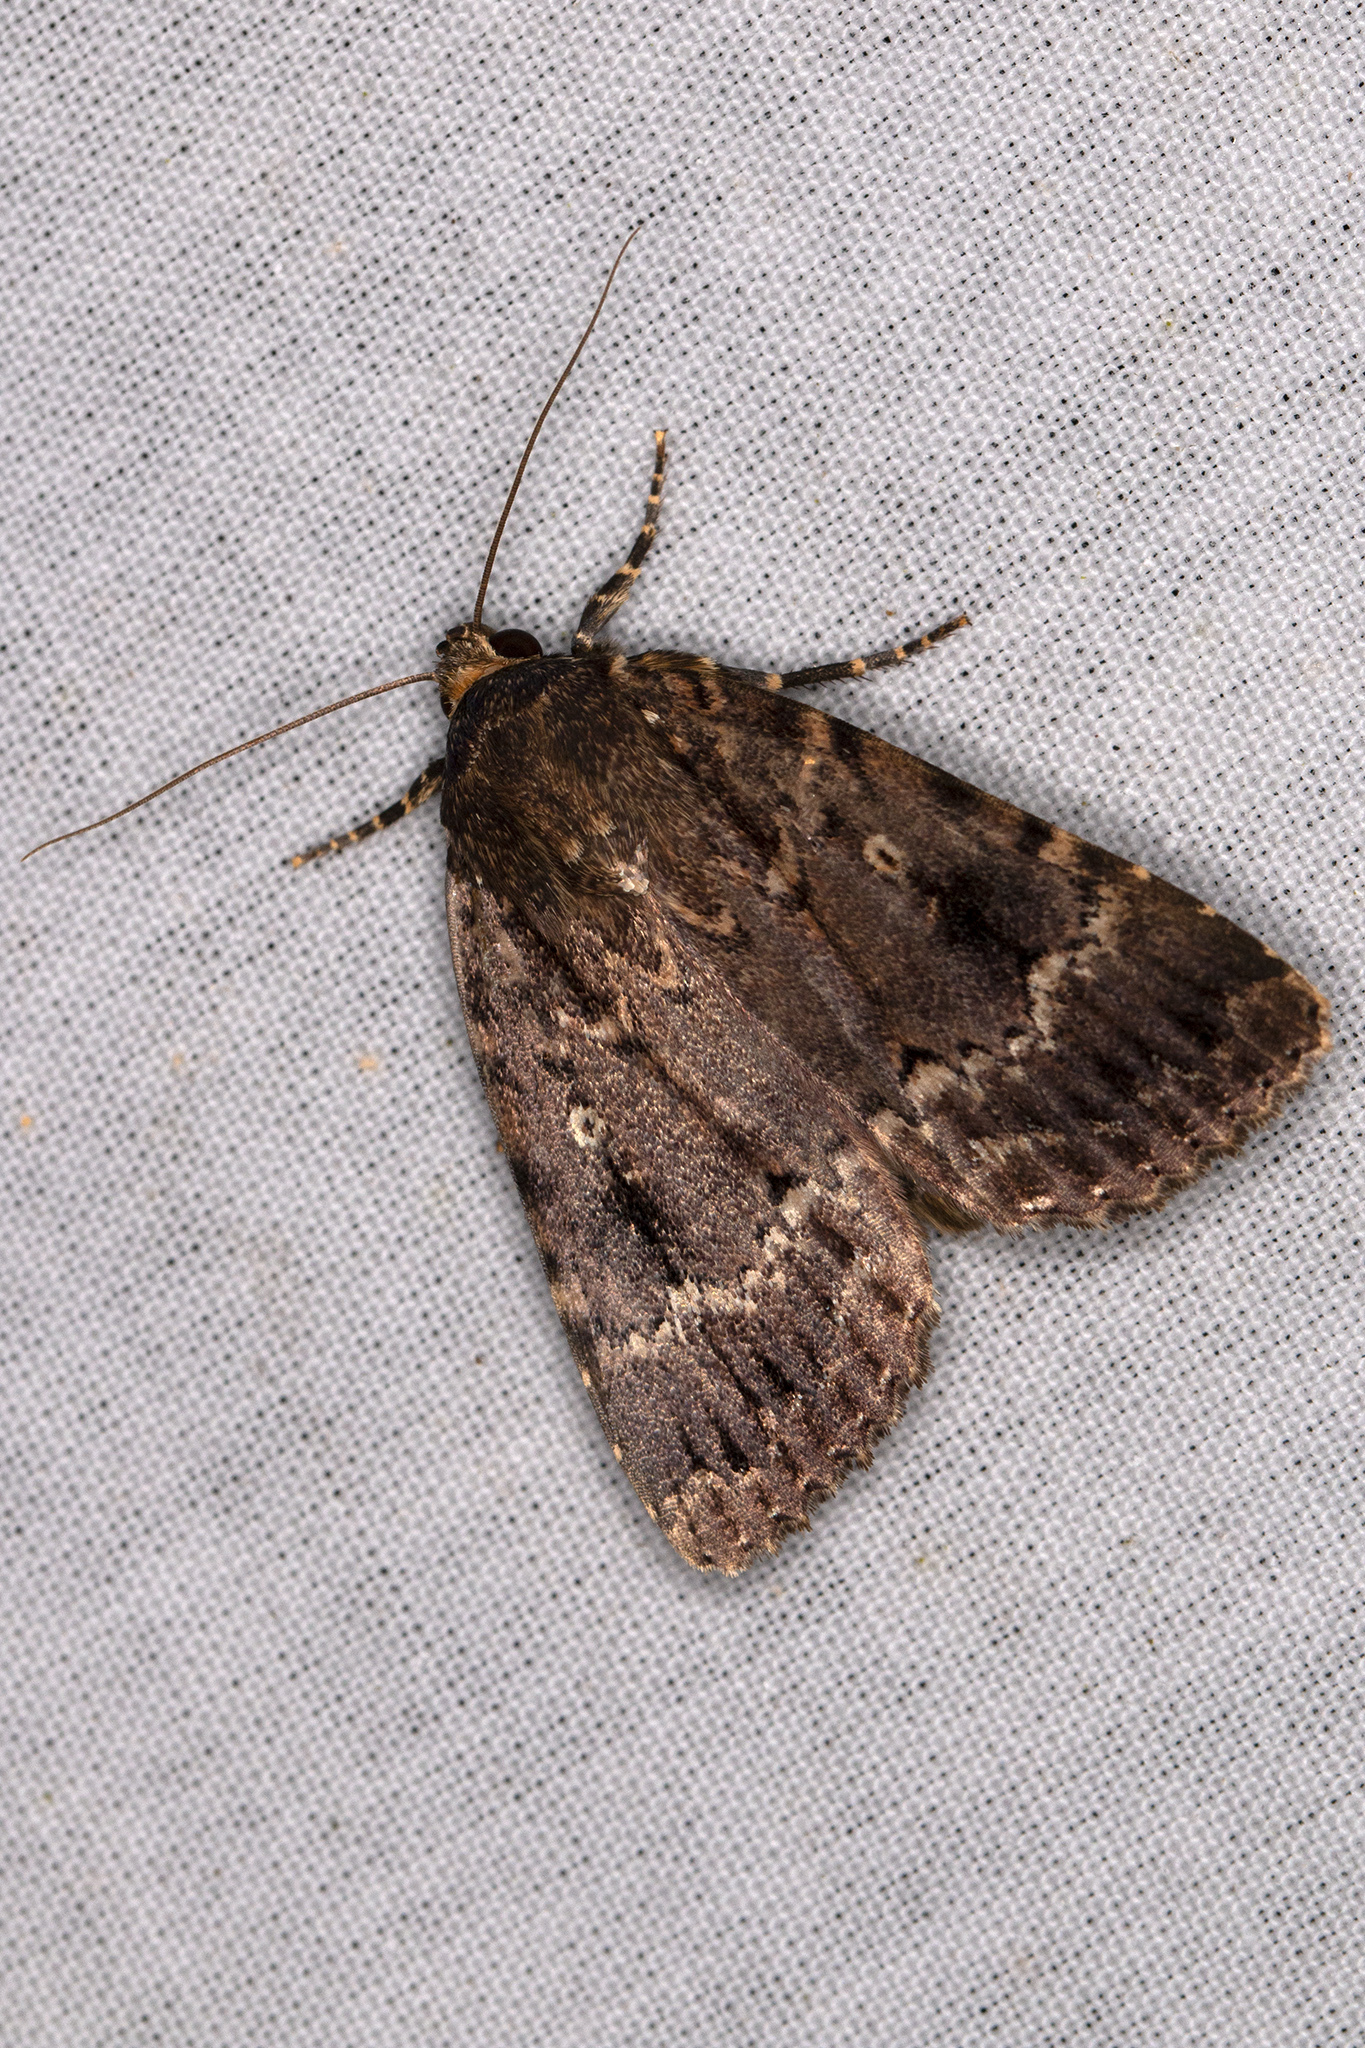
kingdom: Animalia
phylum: Arthropoda
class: Insecta
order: Lepidoptera
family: Noctuidae
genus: Amphipyra
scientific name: Amphipyra pyramidea
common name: Copper underwing
